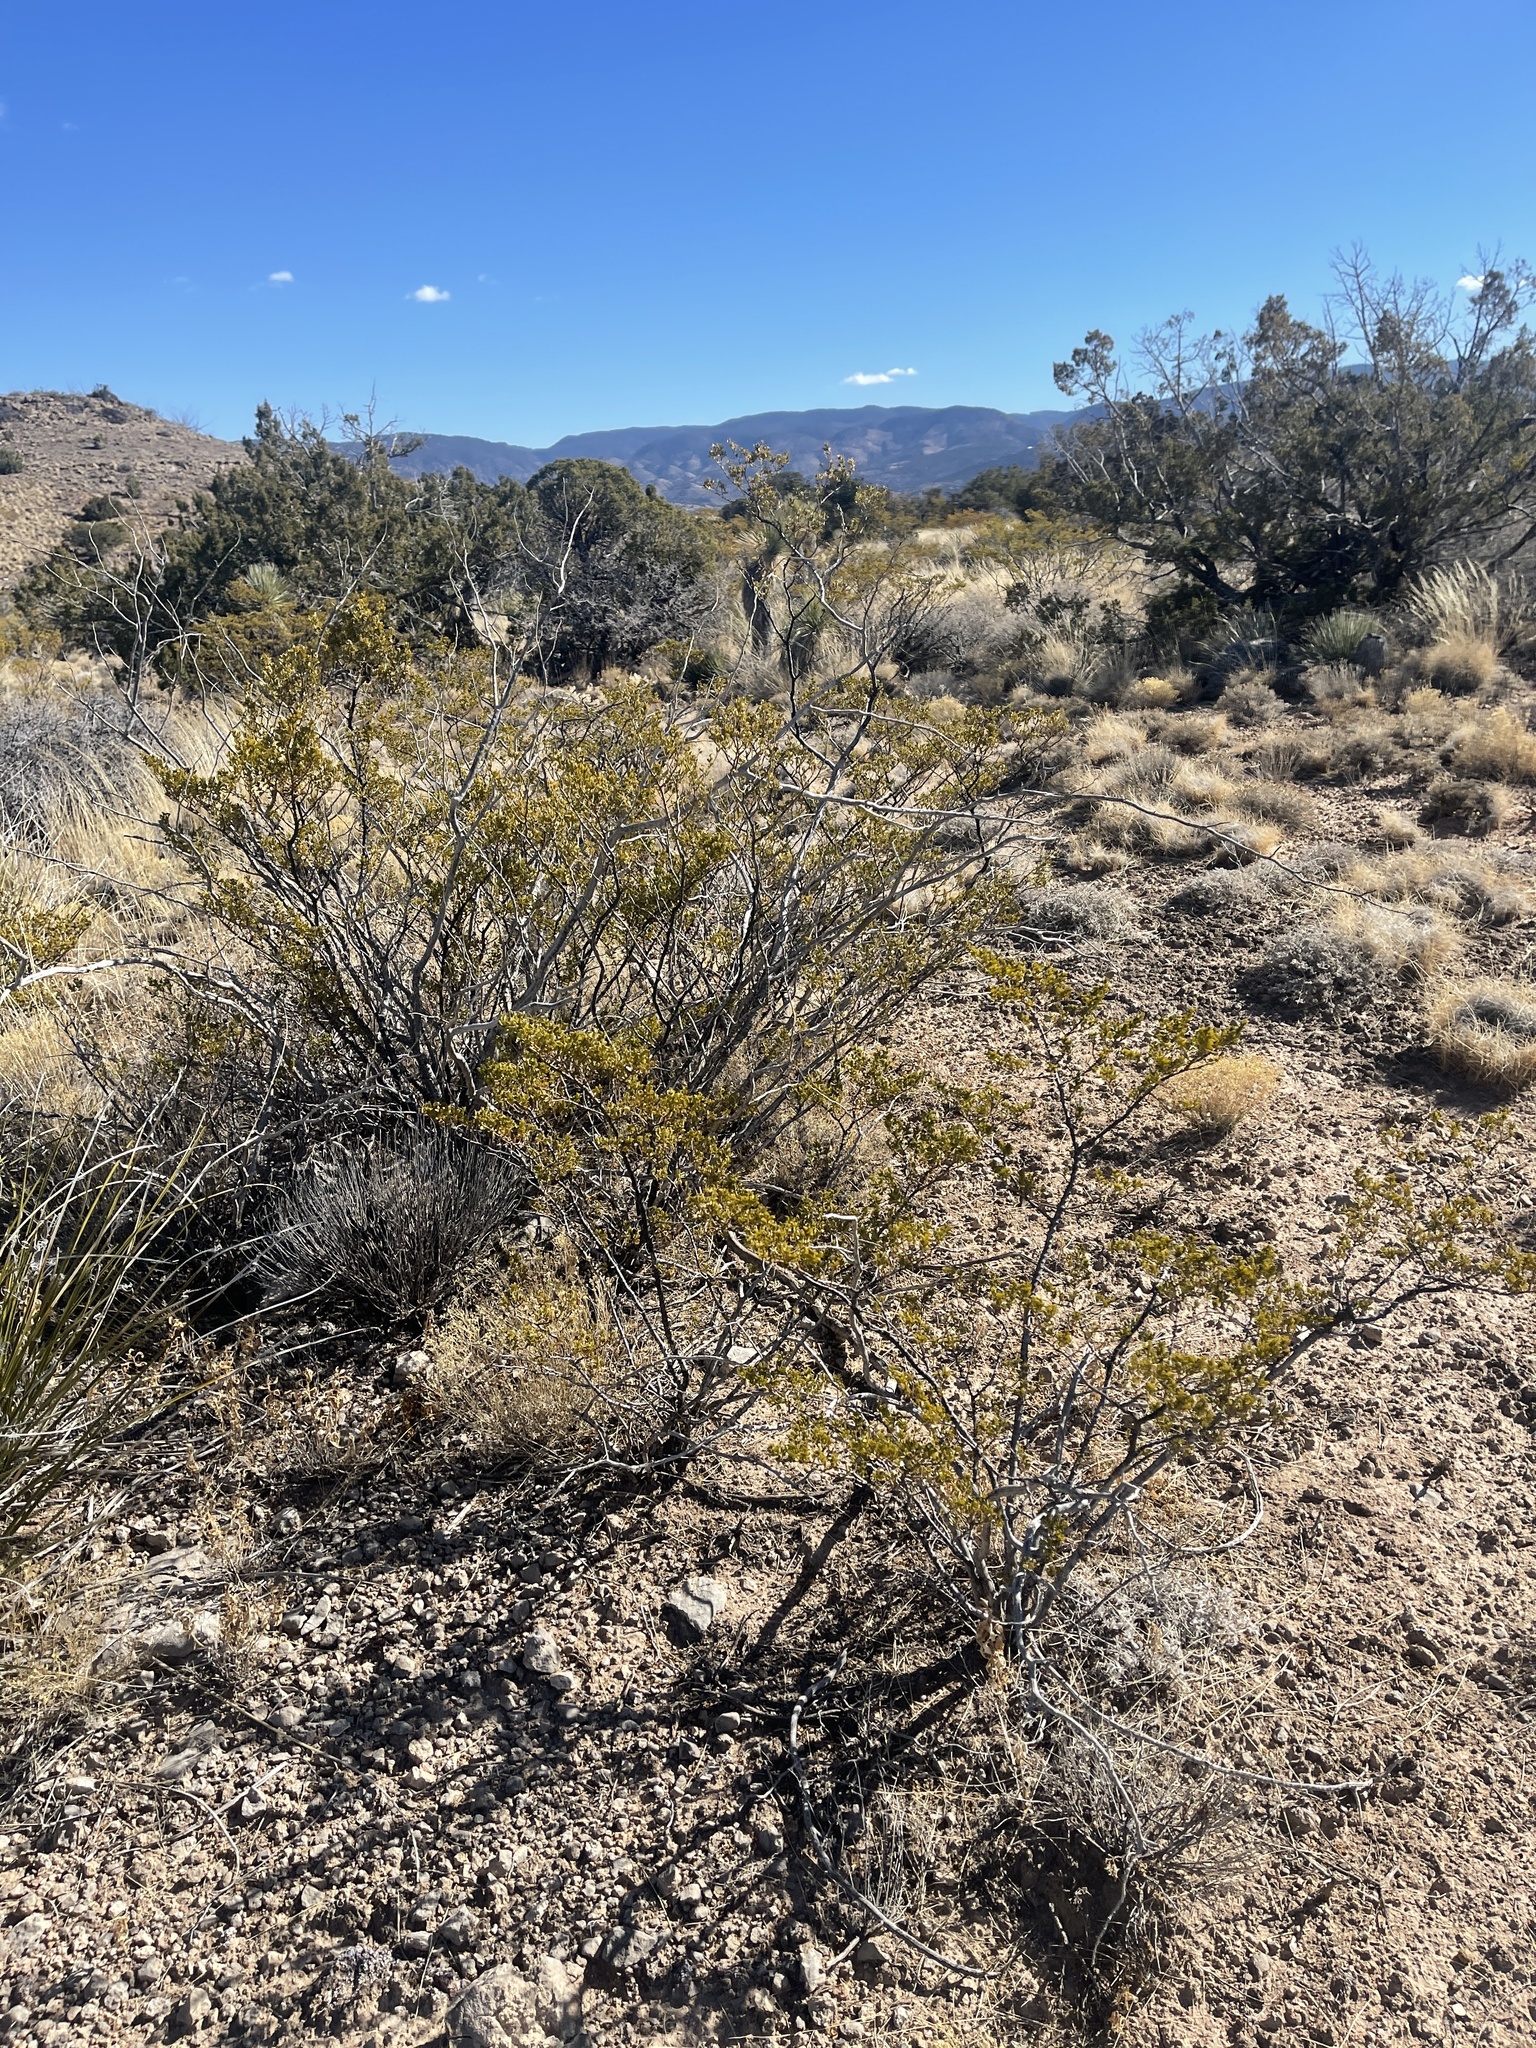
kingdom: Plantae
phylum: Tracheophyta
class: Magnoliopsida
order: Zygophyllales
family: Zygophyllaceae
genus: Larrea
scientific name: Larrea tridentata
